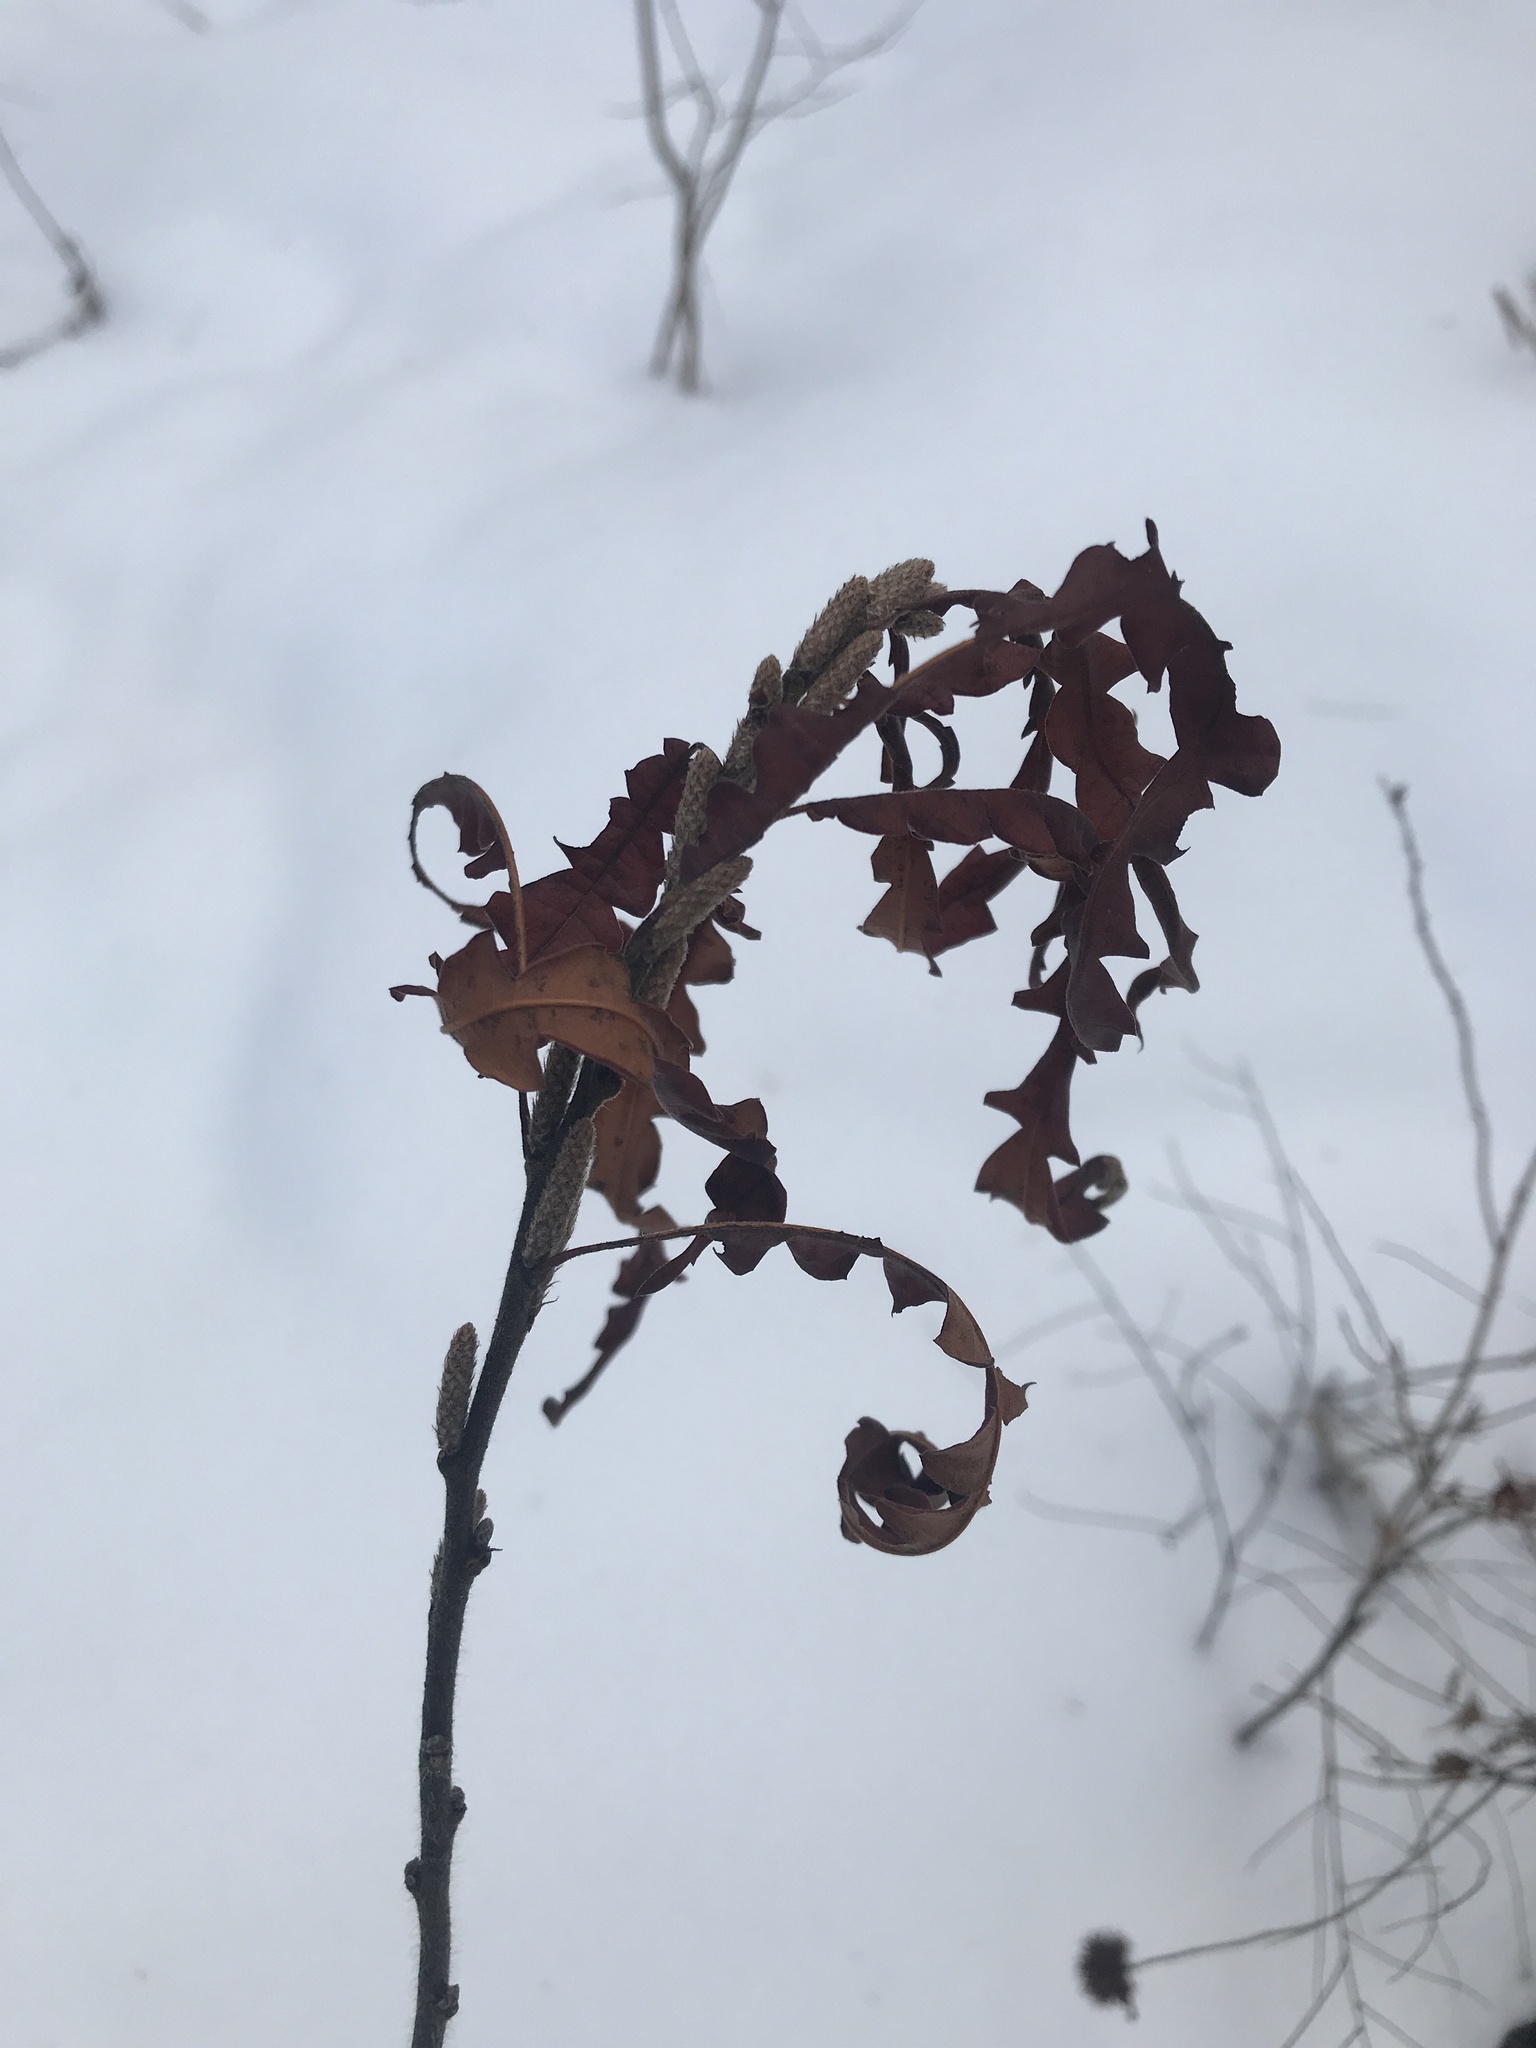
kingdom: Plantae
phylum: Tracheophyta
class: Magnoliopsida
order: Fagales
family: Myricaceae
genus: Comptonia
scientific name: Comptonia peregrina
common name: Sweet-fern
